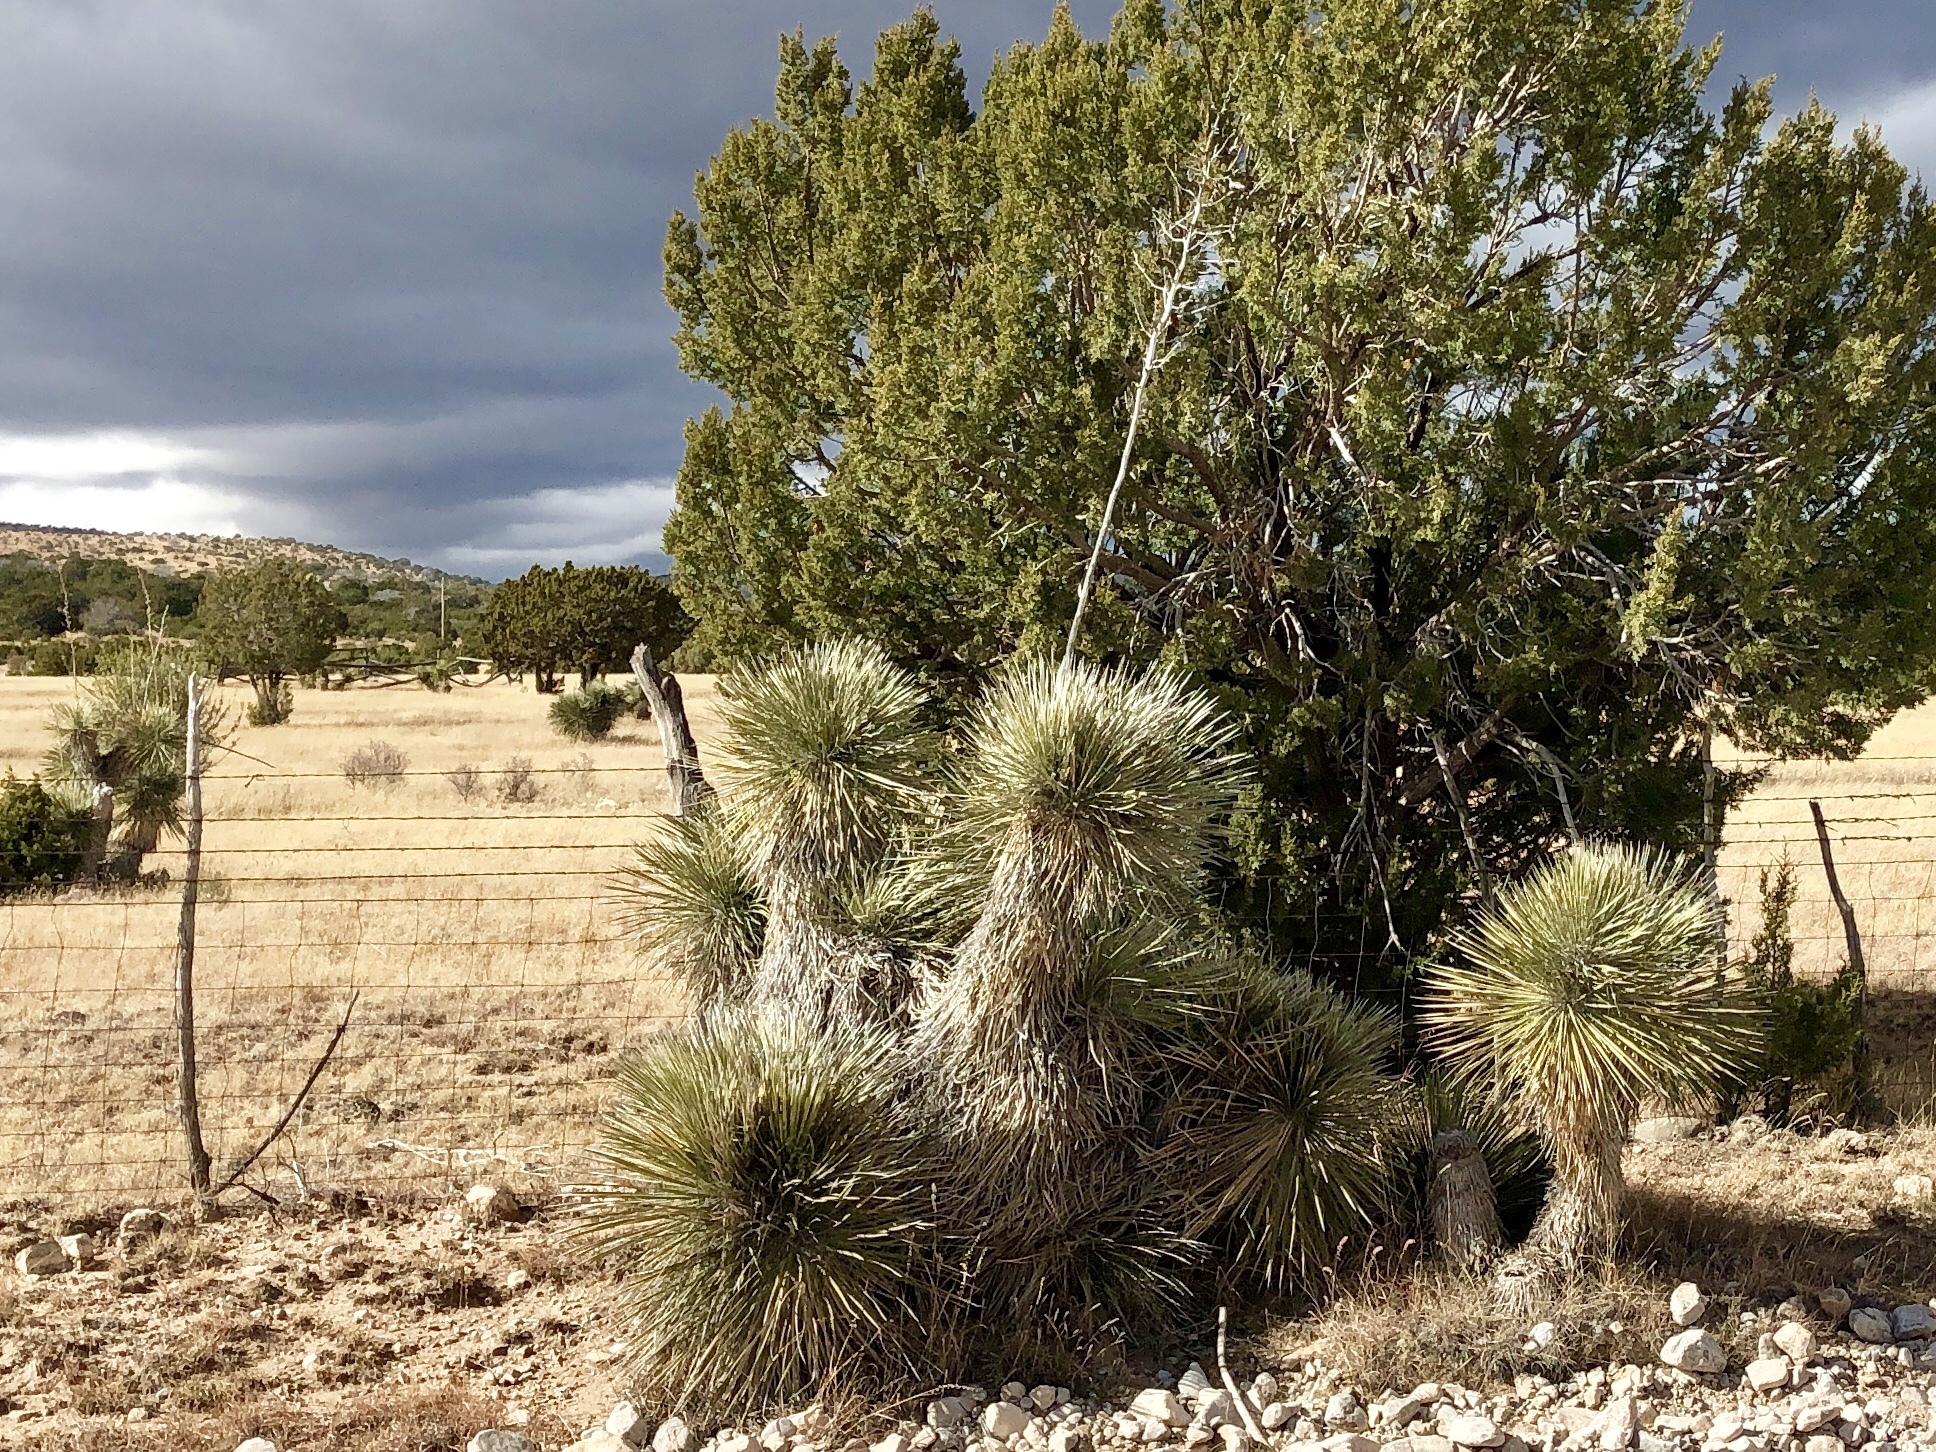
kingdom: Plantae
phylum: Tracheophyta
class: Liliopsida
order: Asparagales
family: Asparagaceae
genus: Yucca
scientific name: Yucca elata
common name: Palmella
